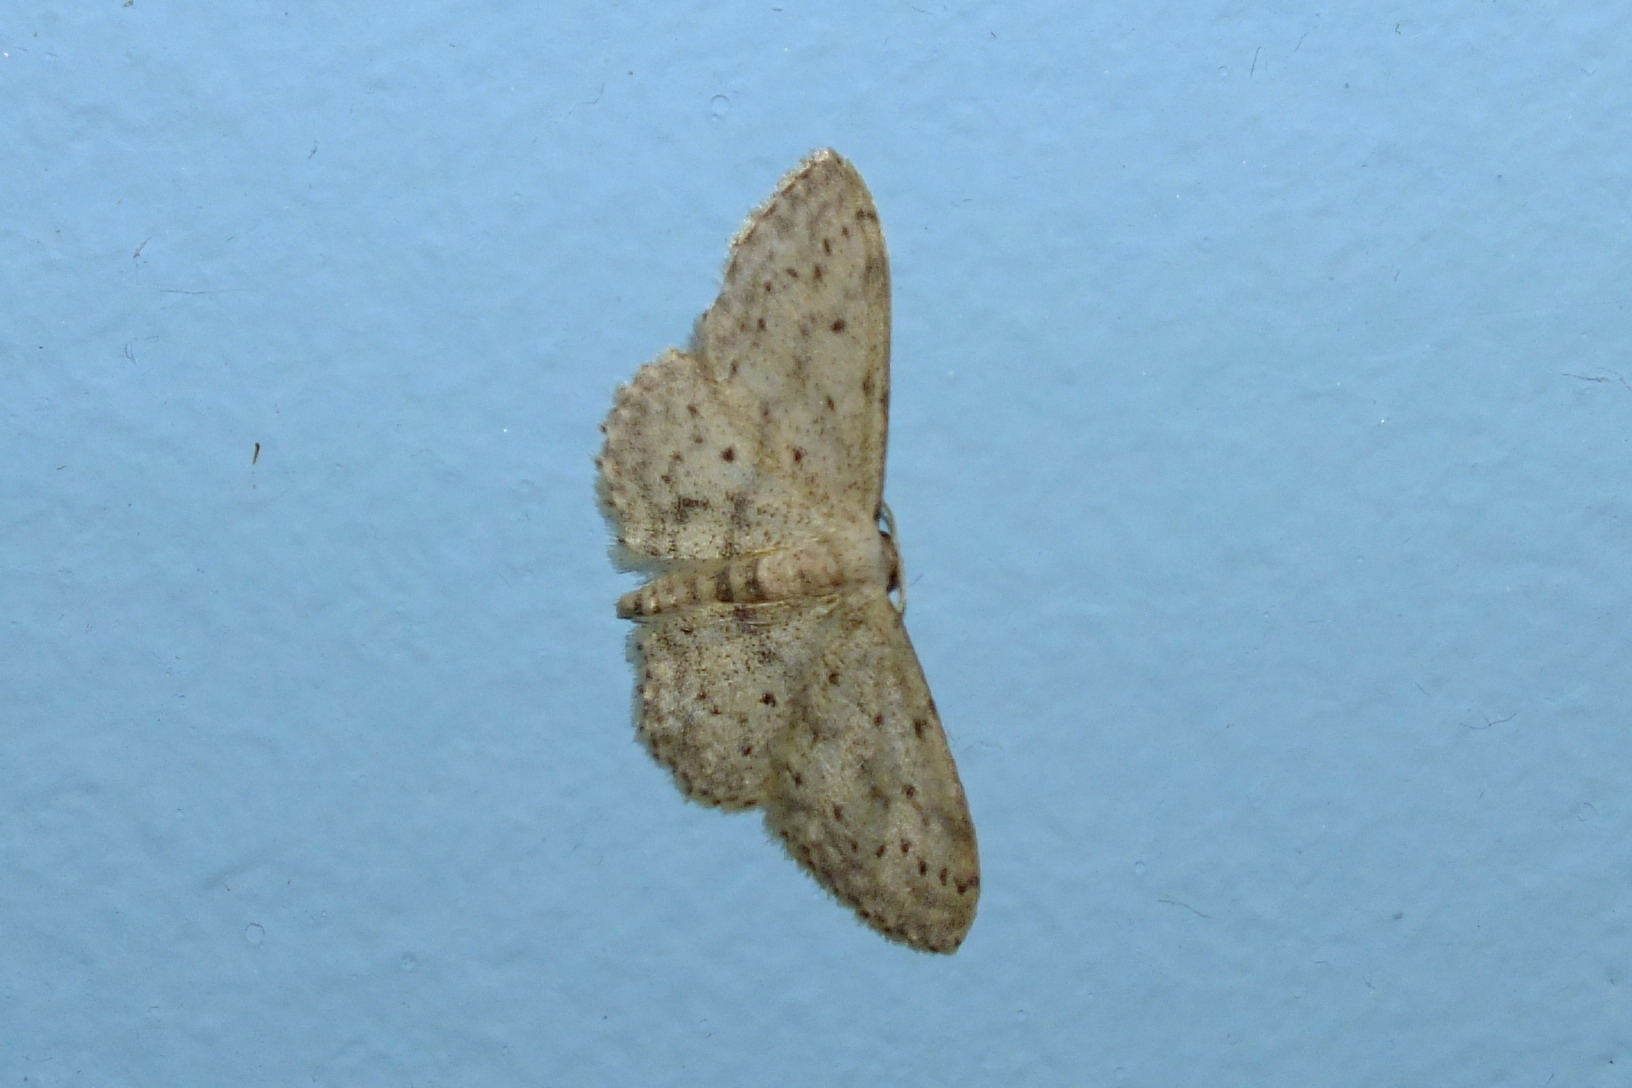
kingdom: Animalia
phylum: Arthropoda
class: Insecta
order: Lepidoptera
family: Geometridae
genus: Idaea
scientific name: Idaea seriata
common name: Small dusty wave
